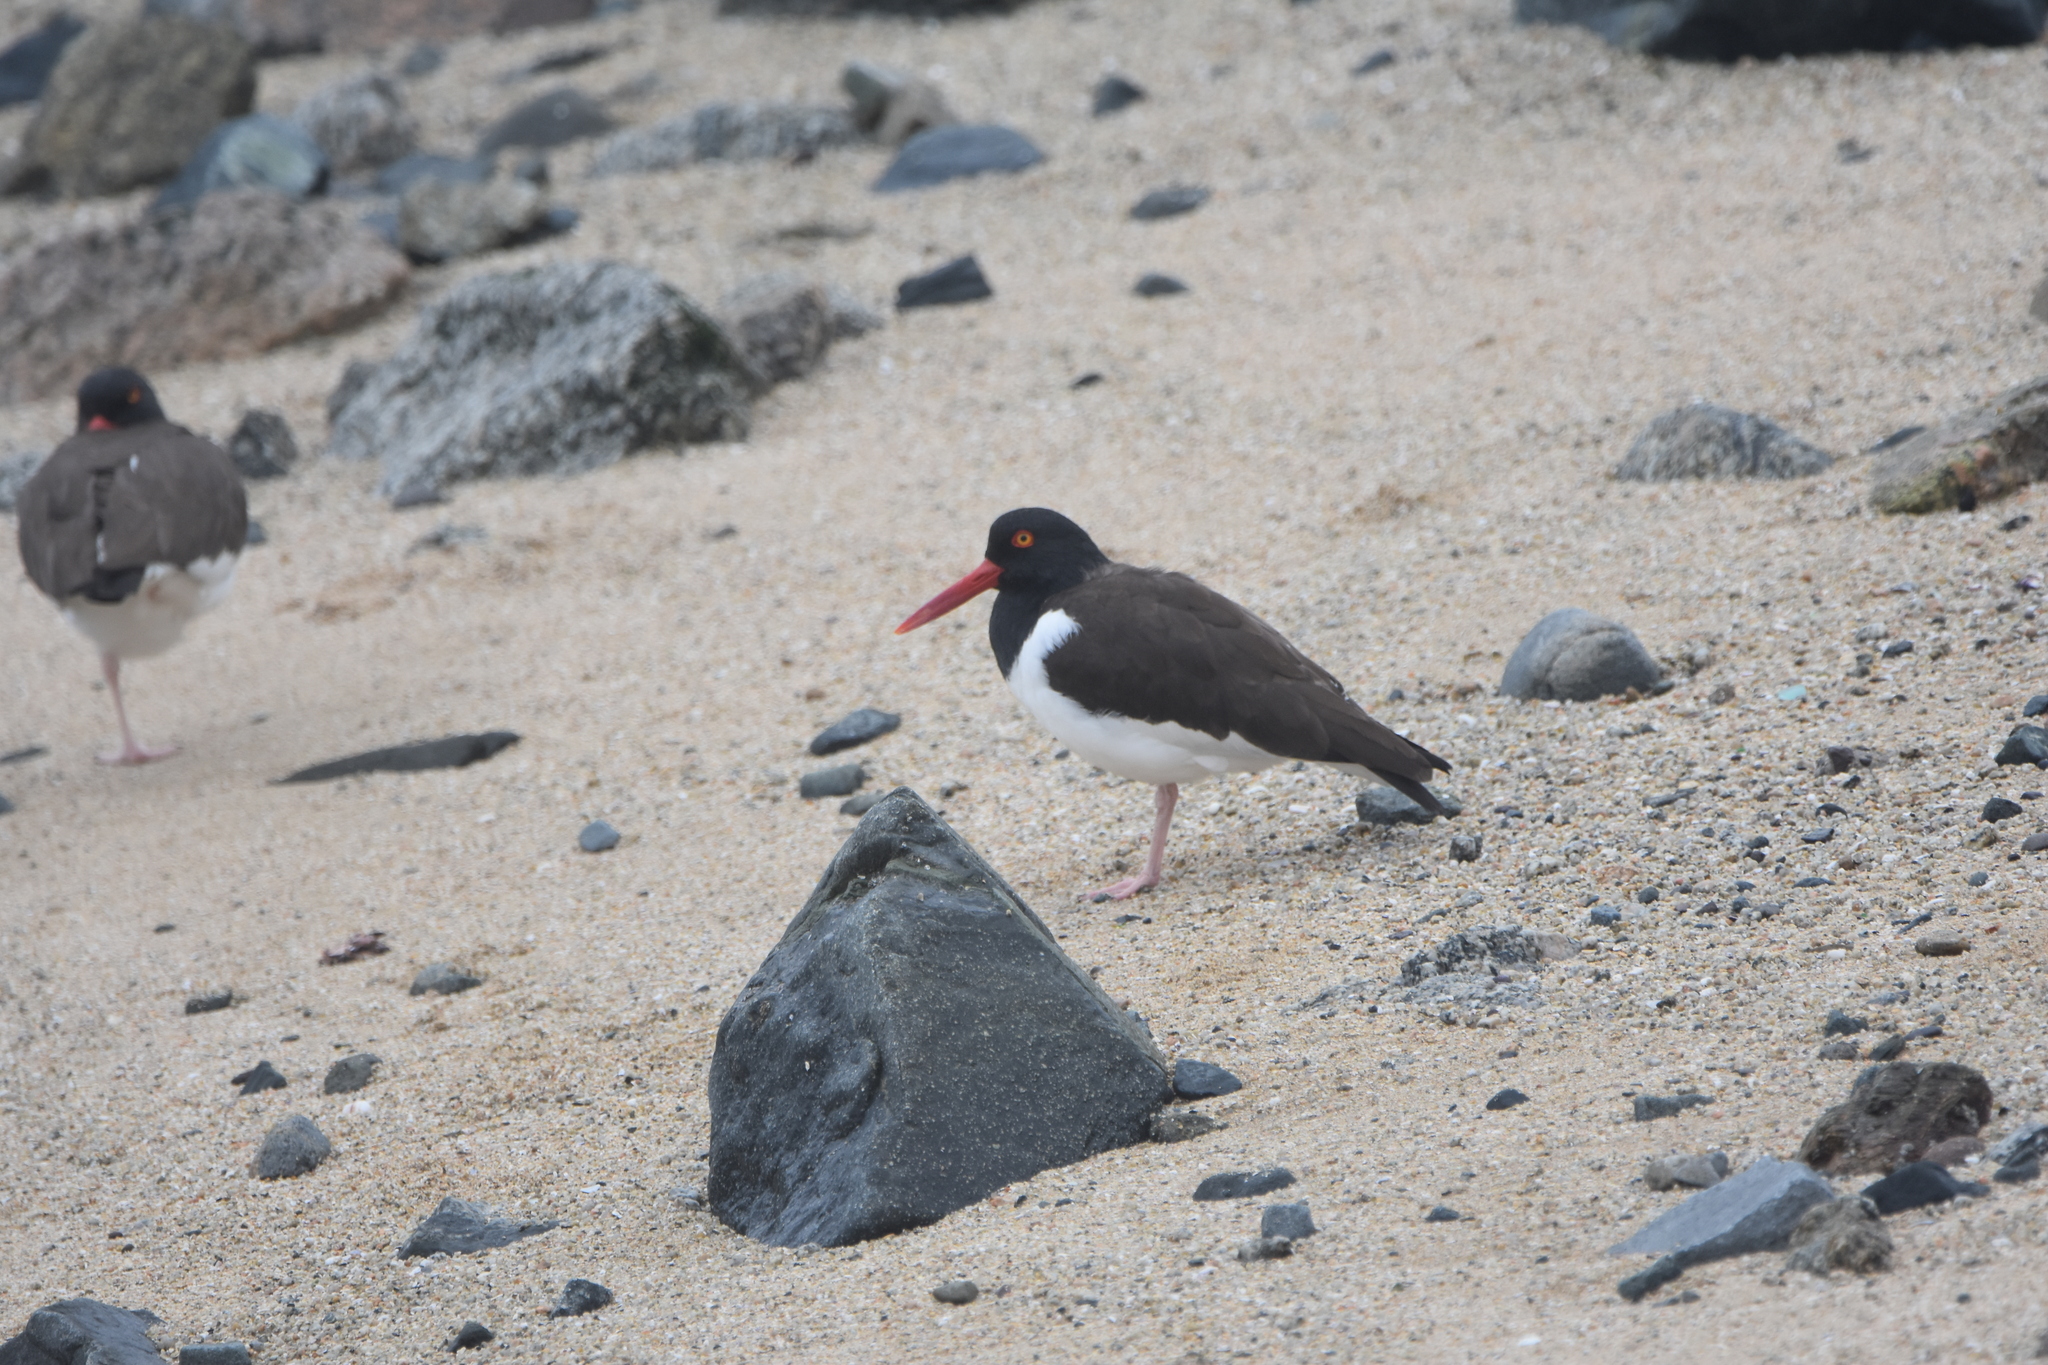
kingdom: Animalia
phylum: Chordata
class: Aves
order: Charadriiformes
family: Haematopodidae
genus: Haematopus
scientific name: Haematopus palliatus
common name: American oystercatcher
